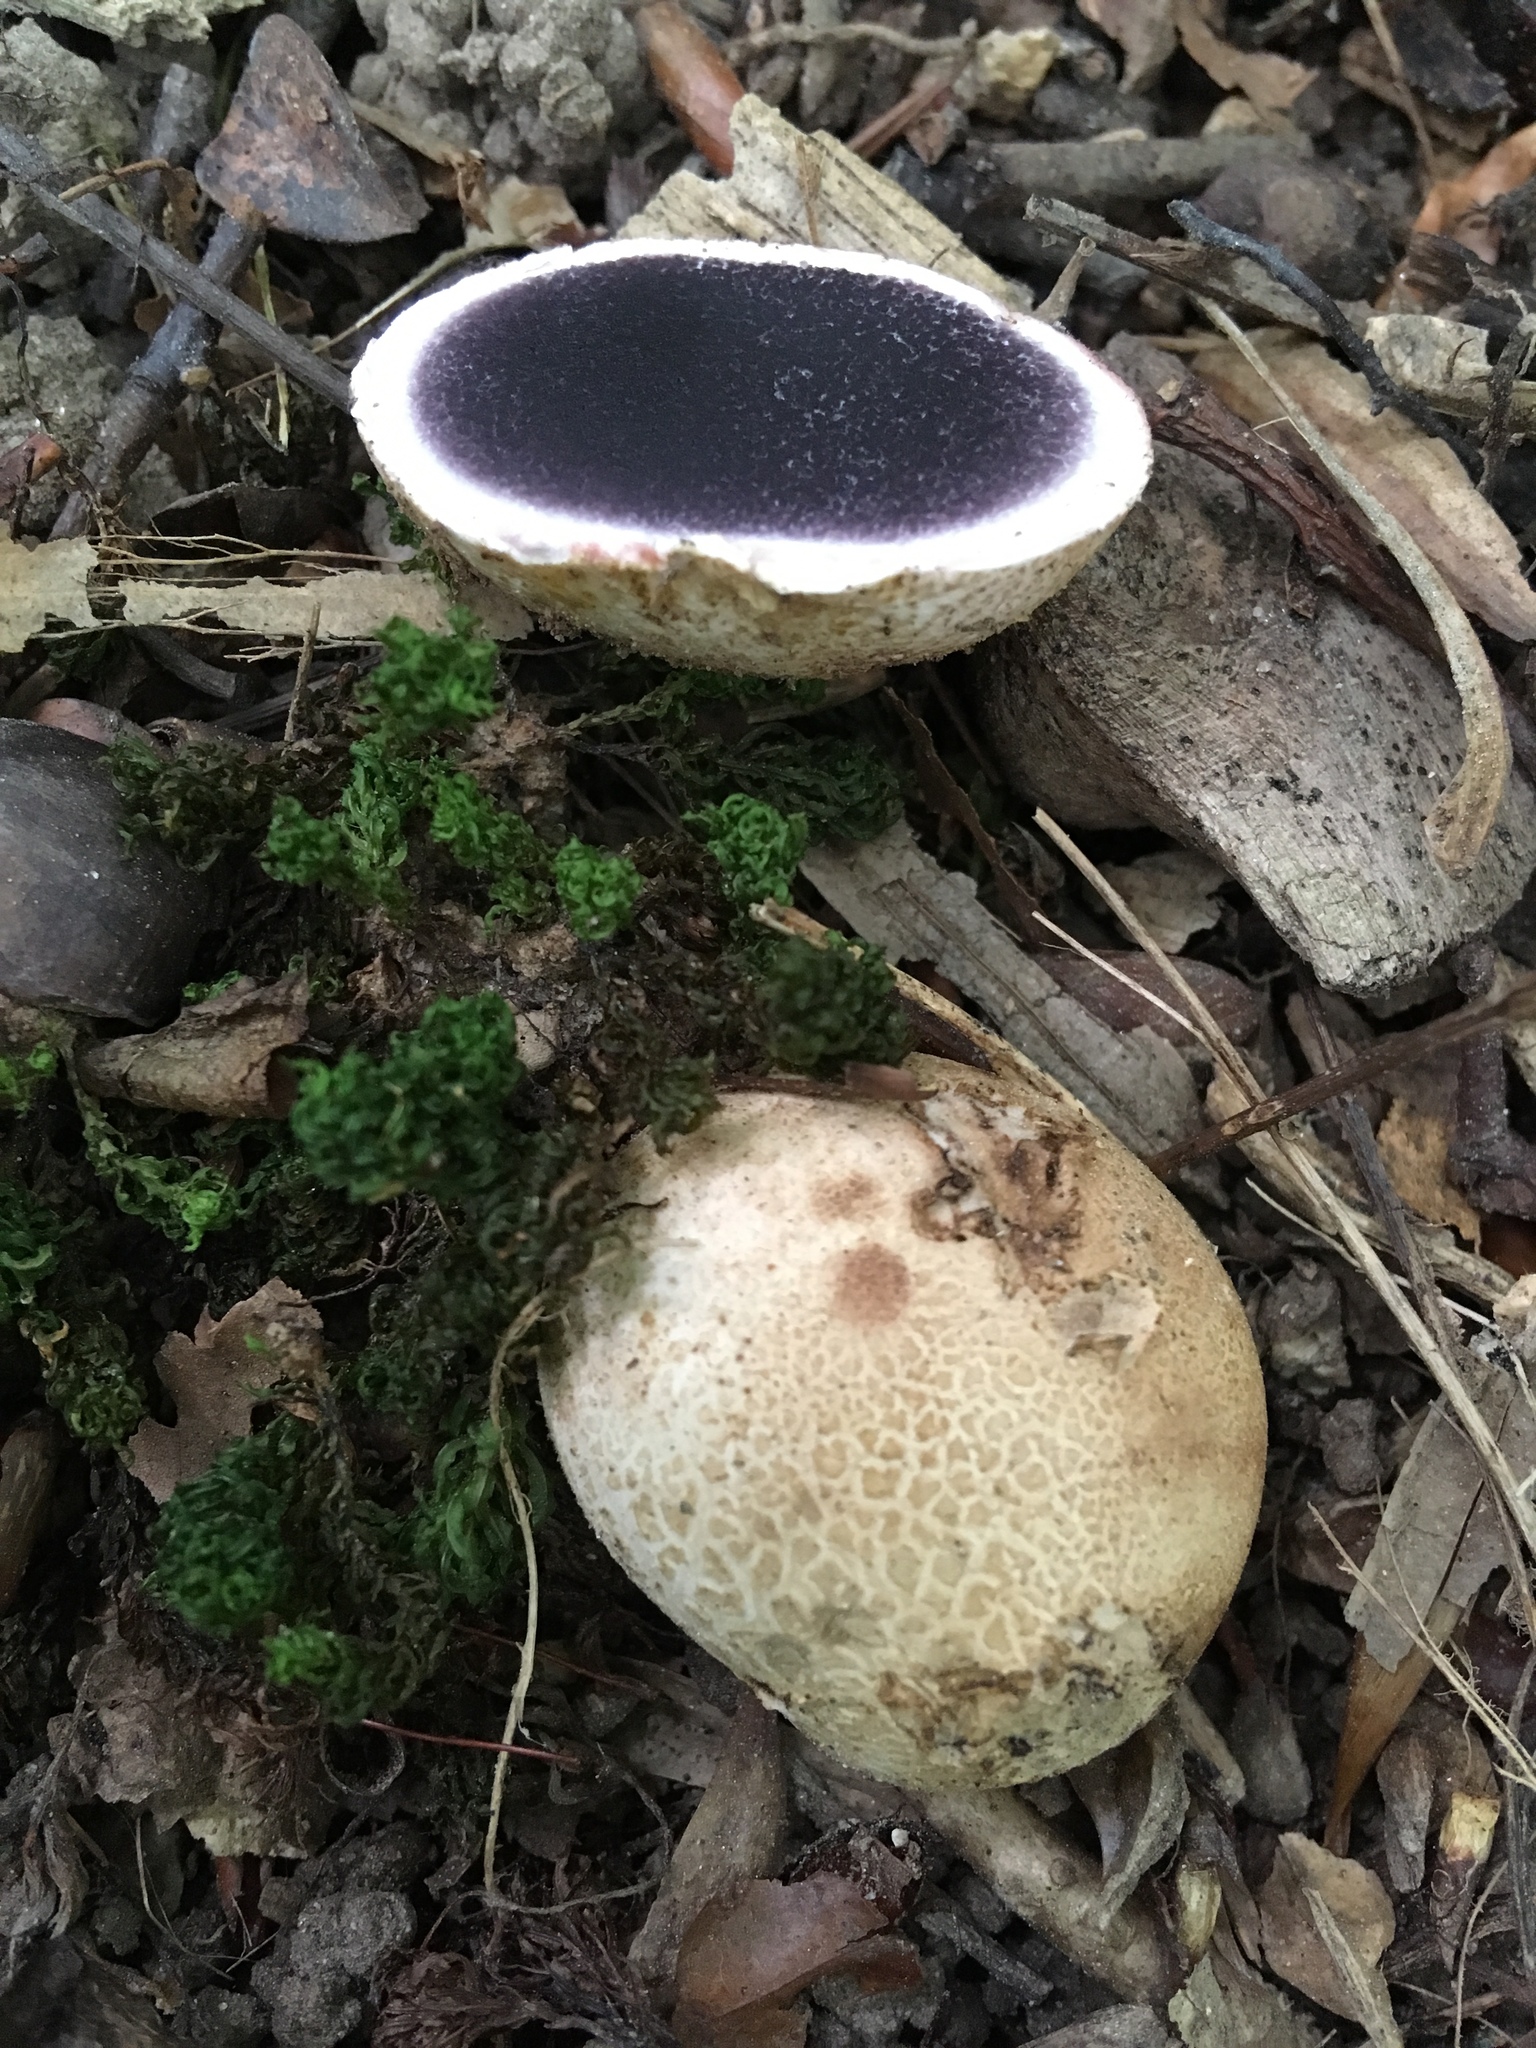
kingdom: Fungi
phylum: Basidiomycota
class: Agaricomycetes
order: Boletales
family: Sclerodermataceae
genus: Scleroderma
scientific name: Scleroderma cepa
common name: Onion earthball
